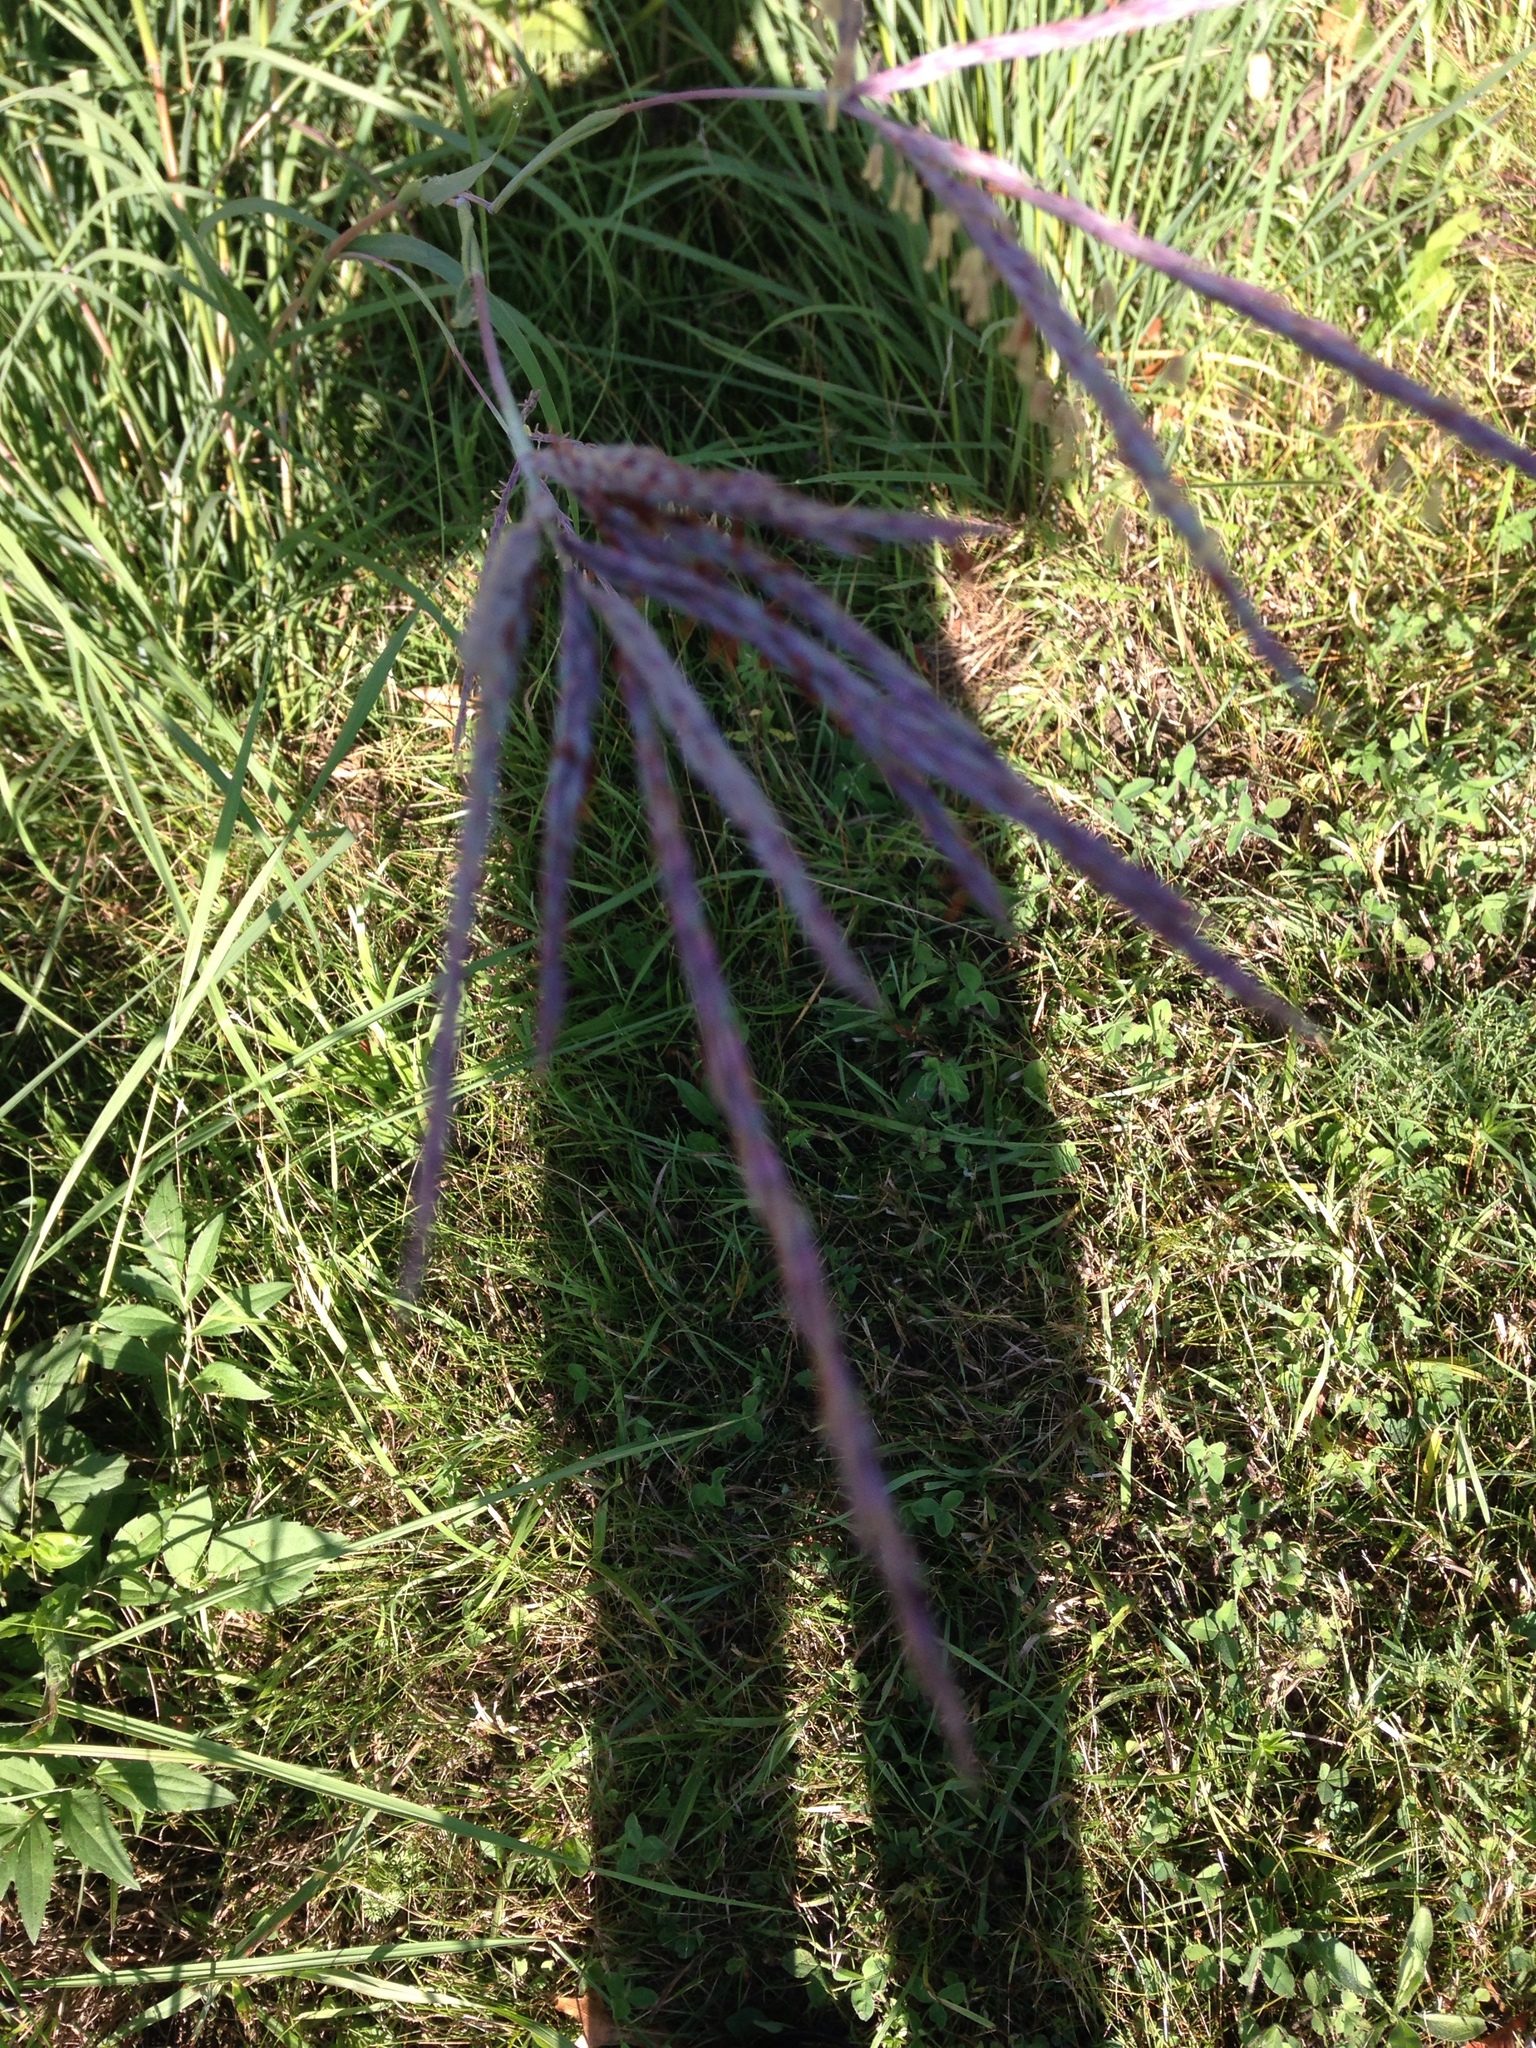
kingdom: Plantae
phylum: Tracheophyta
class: Liliopsida
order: Poales
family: Poaceae
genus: Andropogon
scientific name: Andropogon gerardi
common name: Big bluestem
